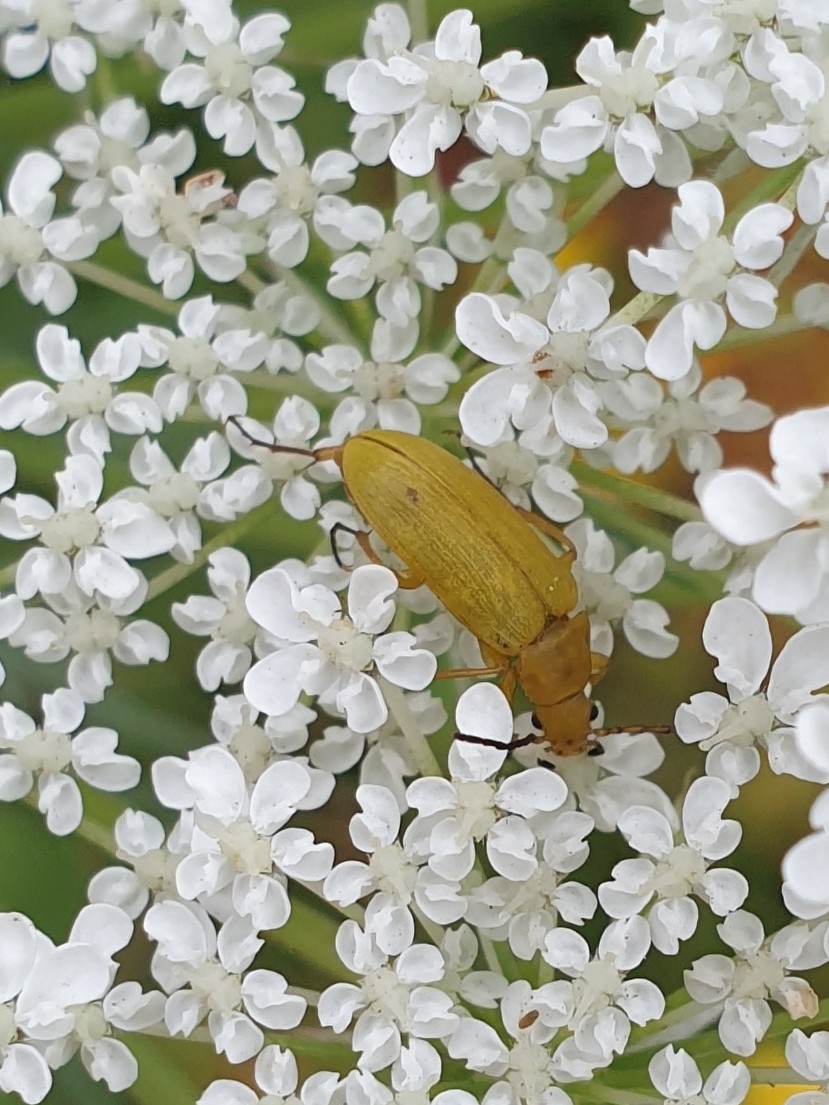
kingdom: Animalia
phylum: Arthropoda
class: Insecta
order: Coleoptera
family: Tenebrionidae
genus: Cteniopus
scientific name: Cteniopus sulphureus
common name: Sulphur beetle
